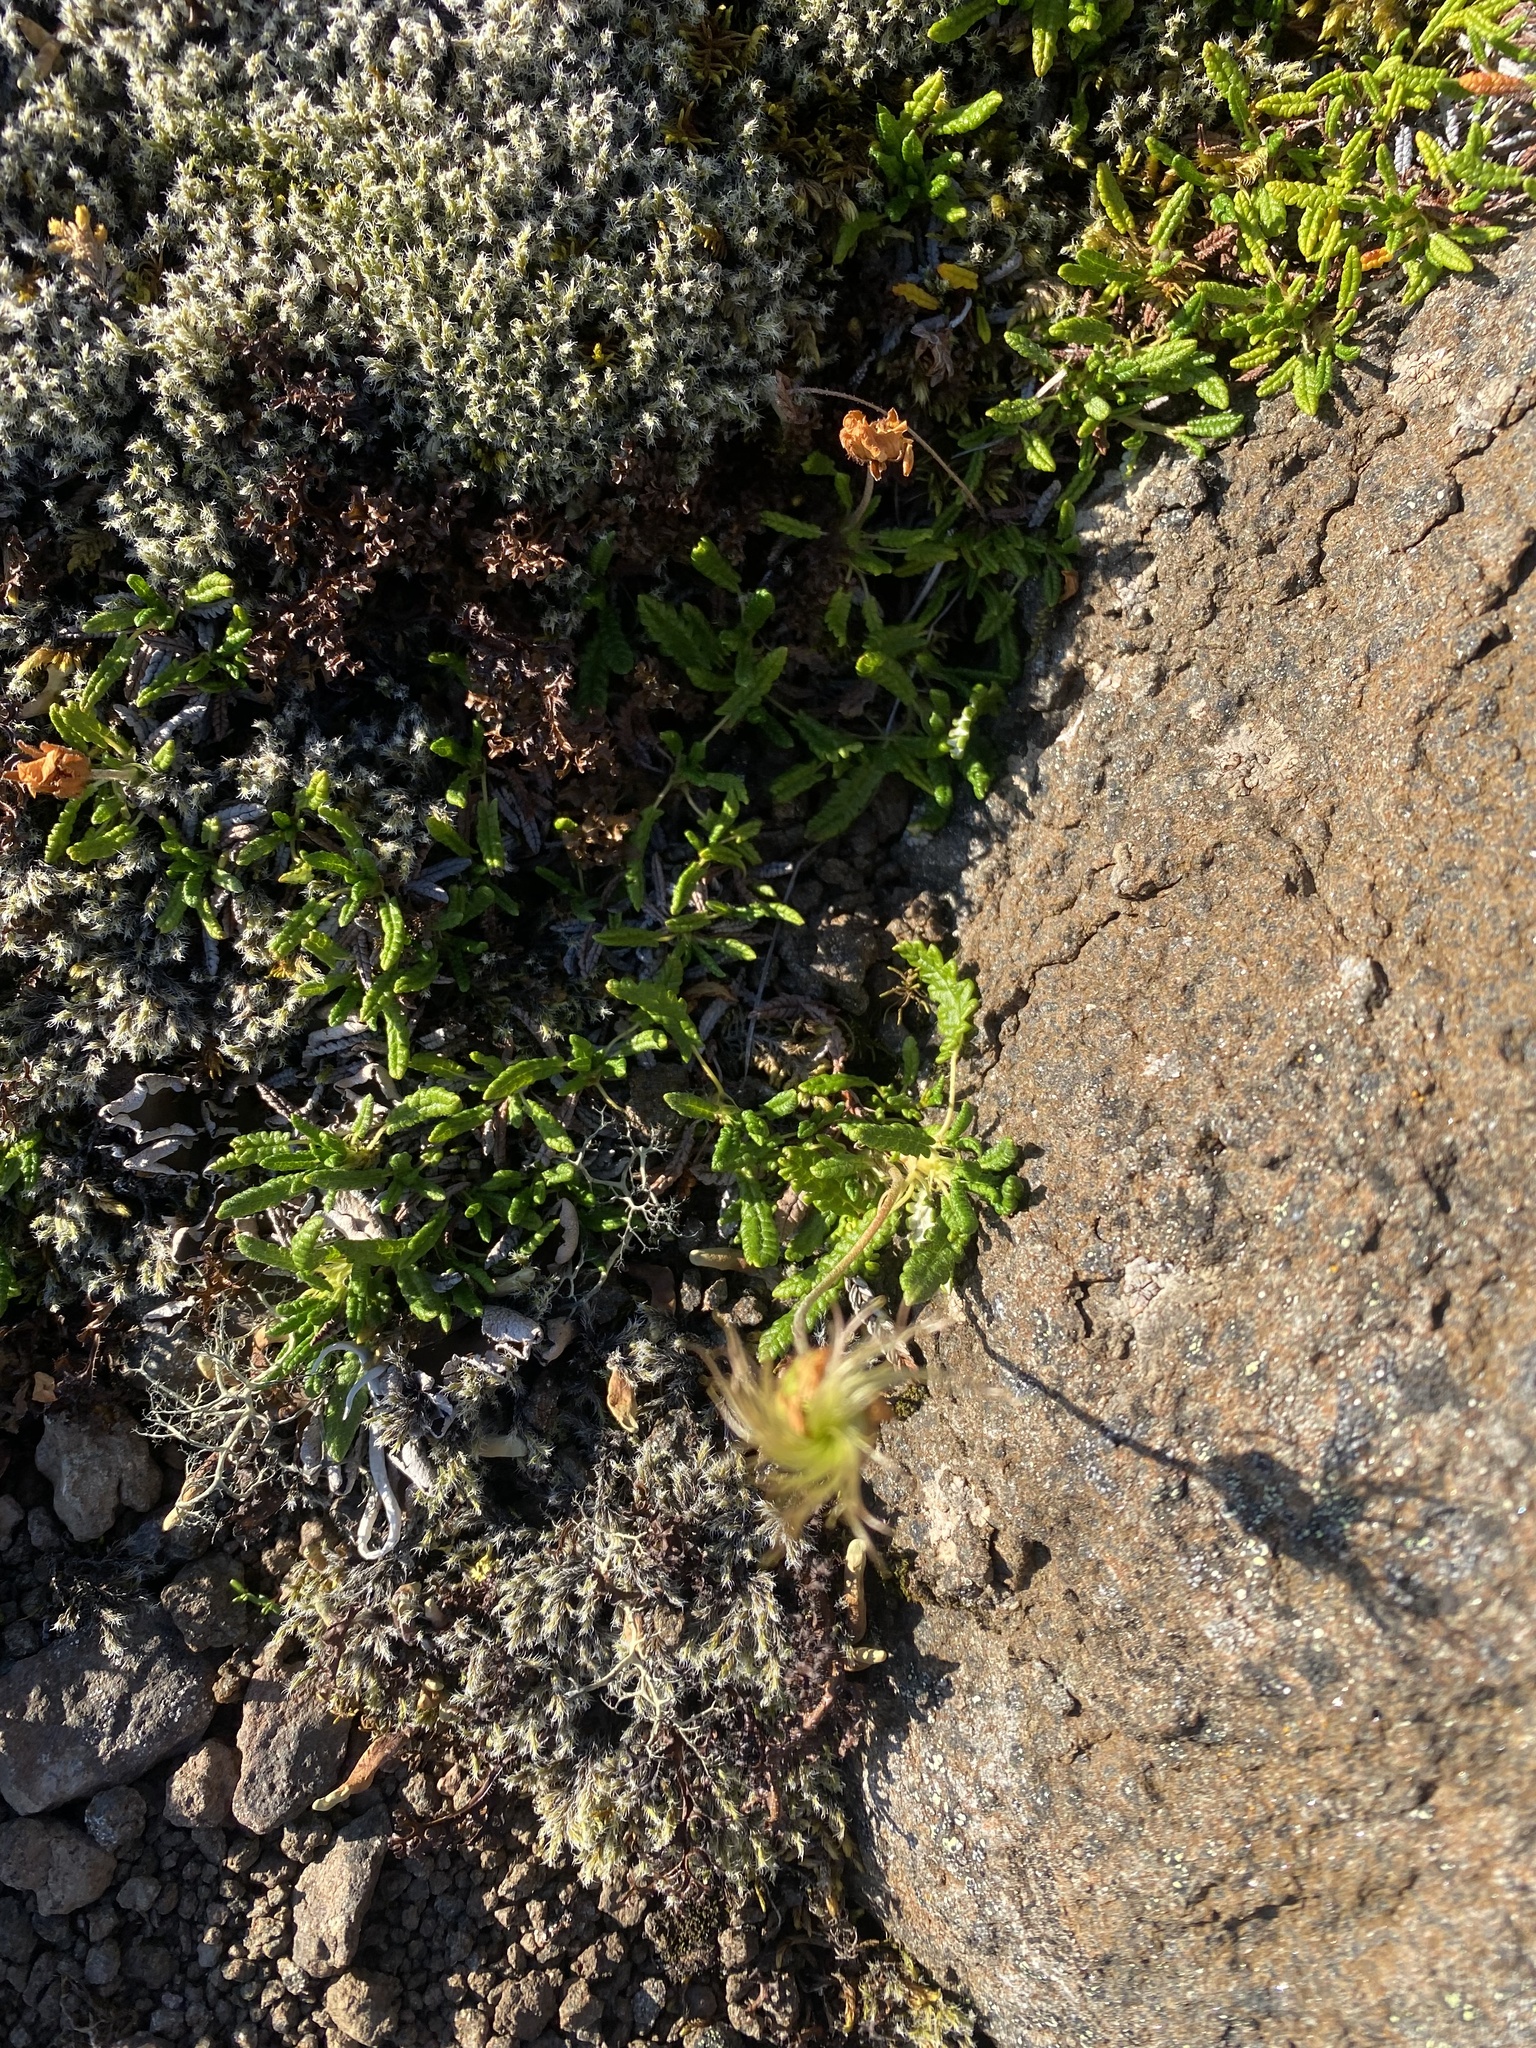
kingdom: Plantae
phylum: Tracheophyta
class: Magnoliopsida
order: Rosales
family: Rosaceae
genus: Dryas
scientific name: Dryas octopetala
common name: Eight-petal mountain-avens
